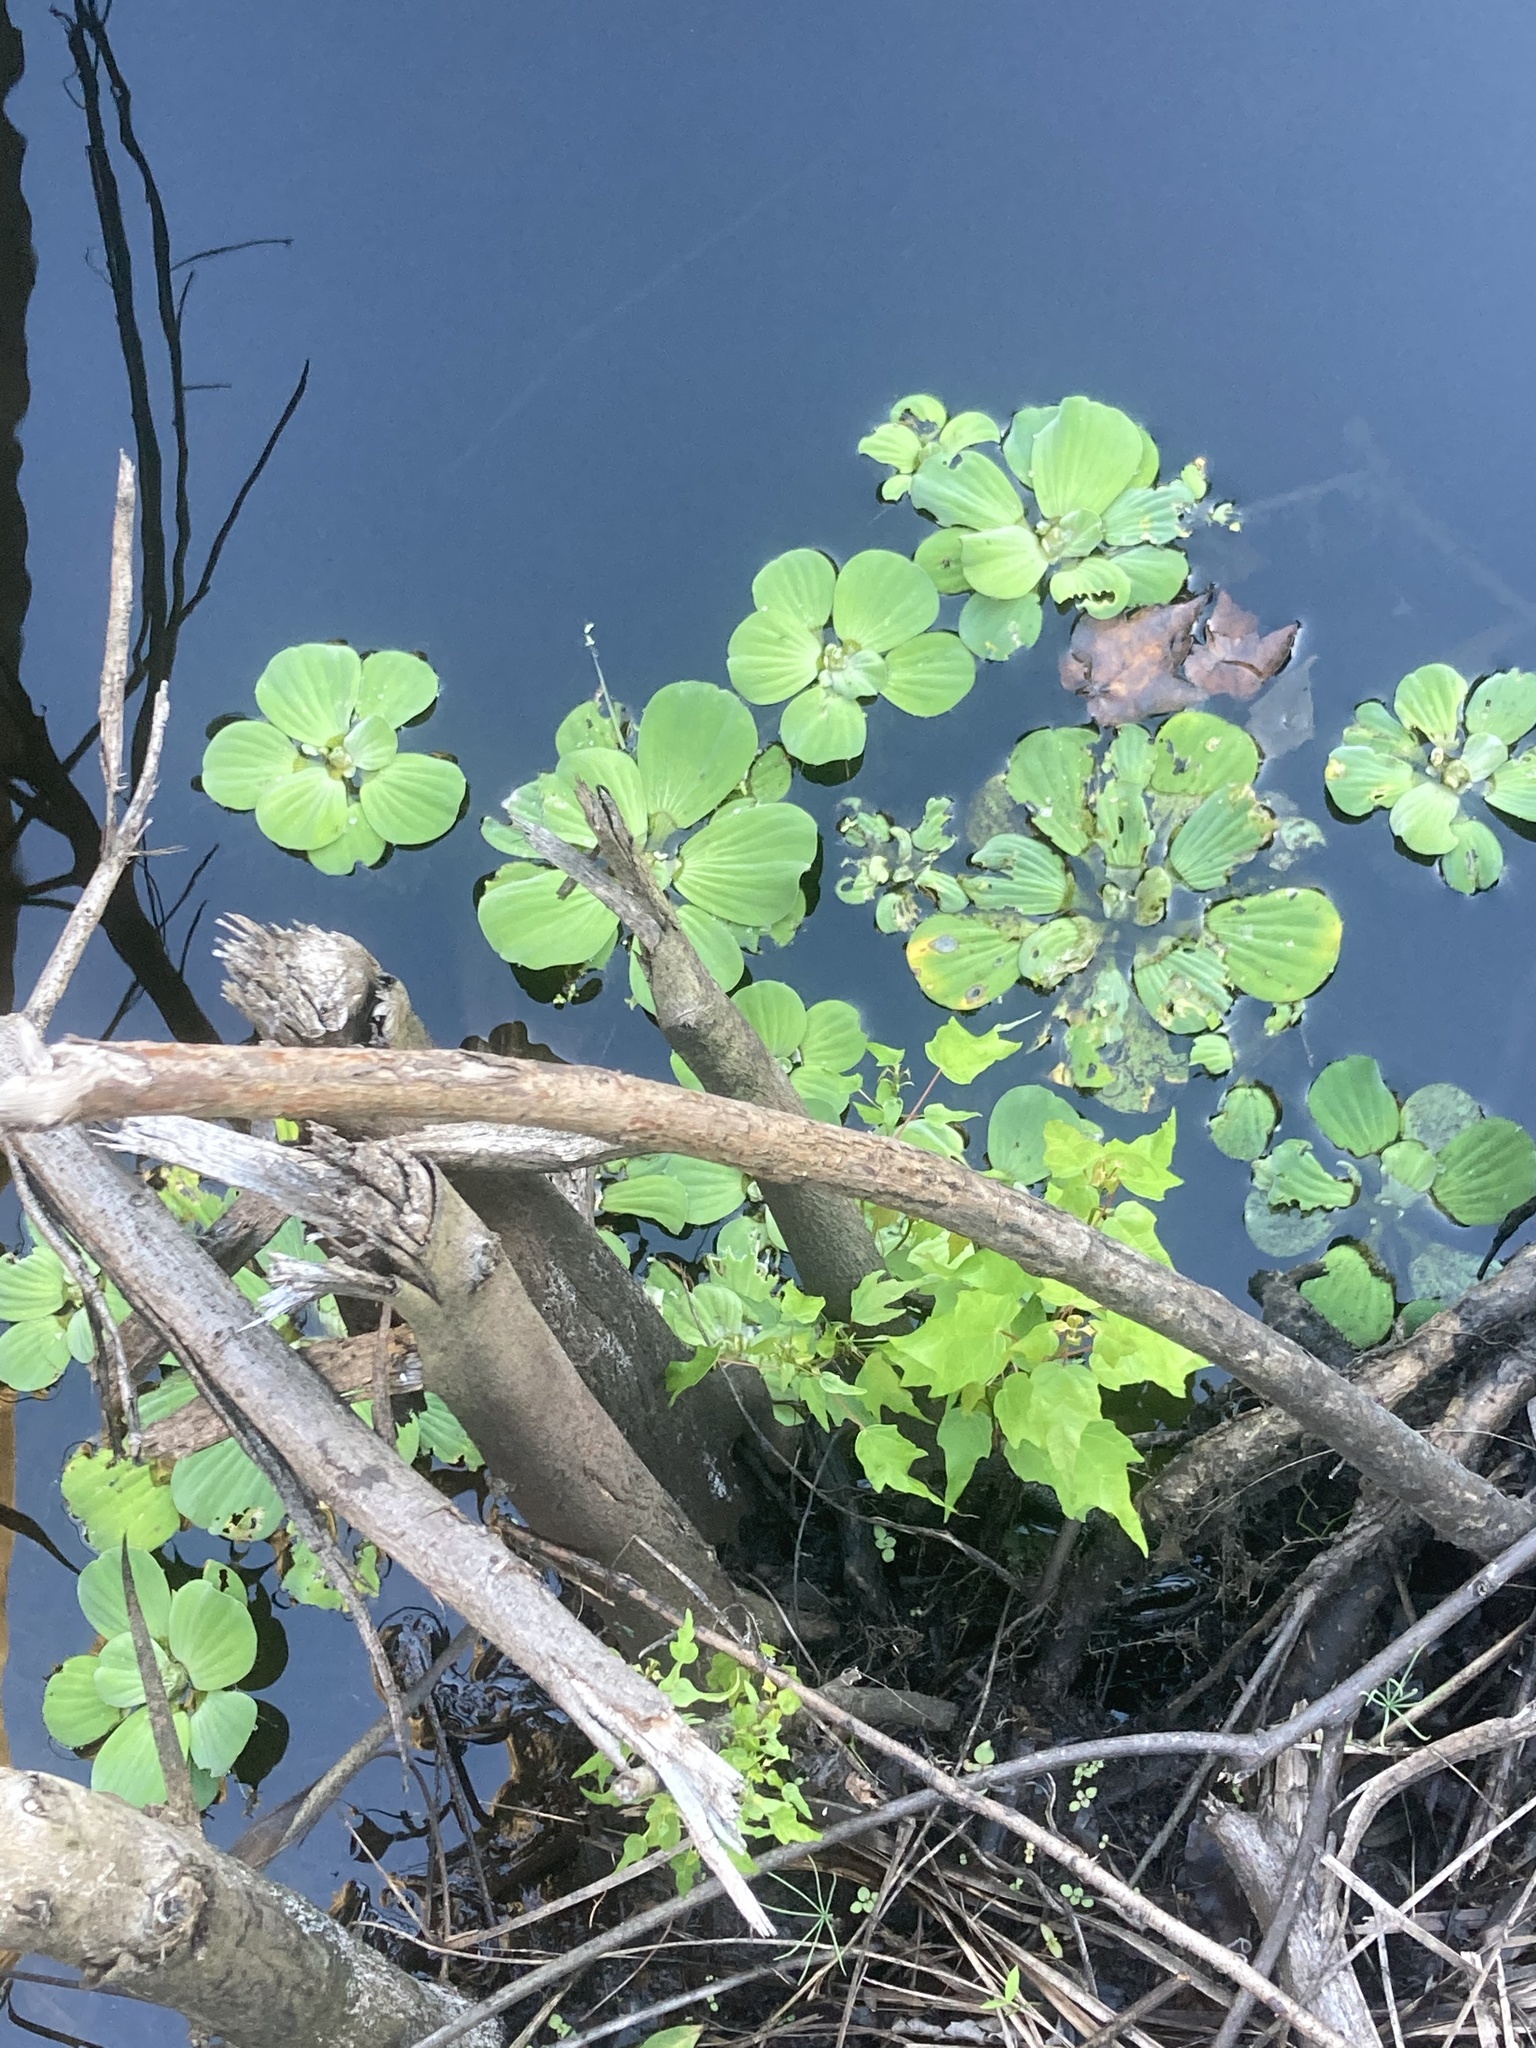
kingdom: Plantae
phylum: Tracheophyta
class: Liliopsida
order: Alismatales
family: Araceae
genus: Pistia
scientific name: Pistia stratiotes
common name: Water lettuce
